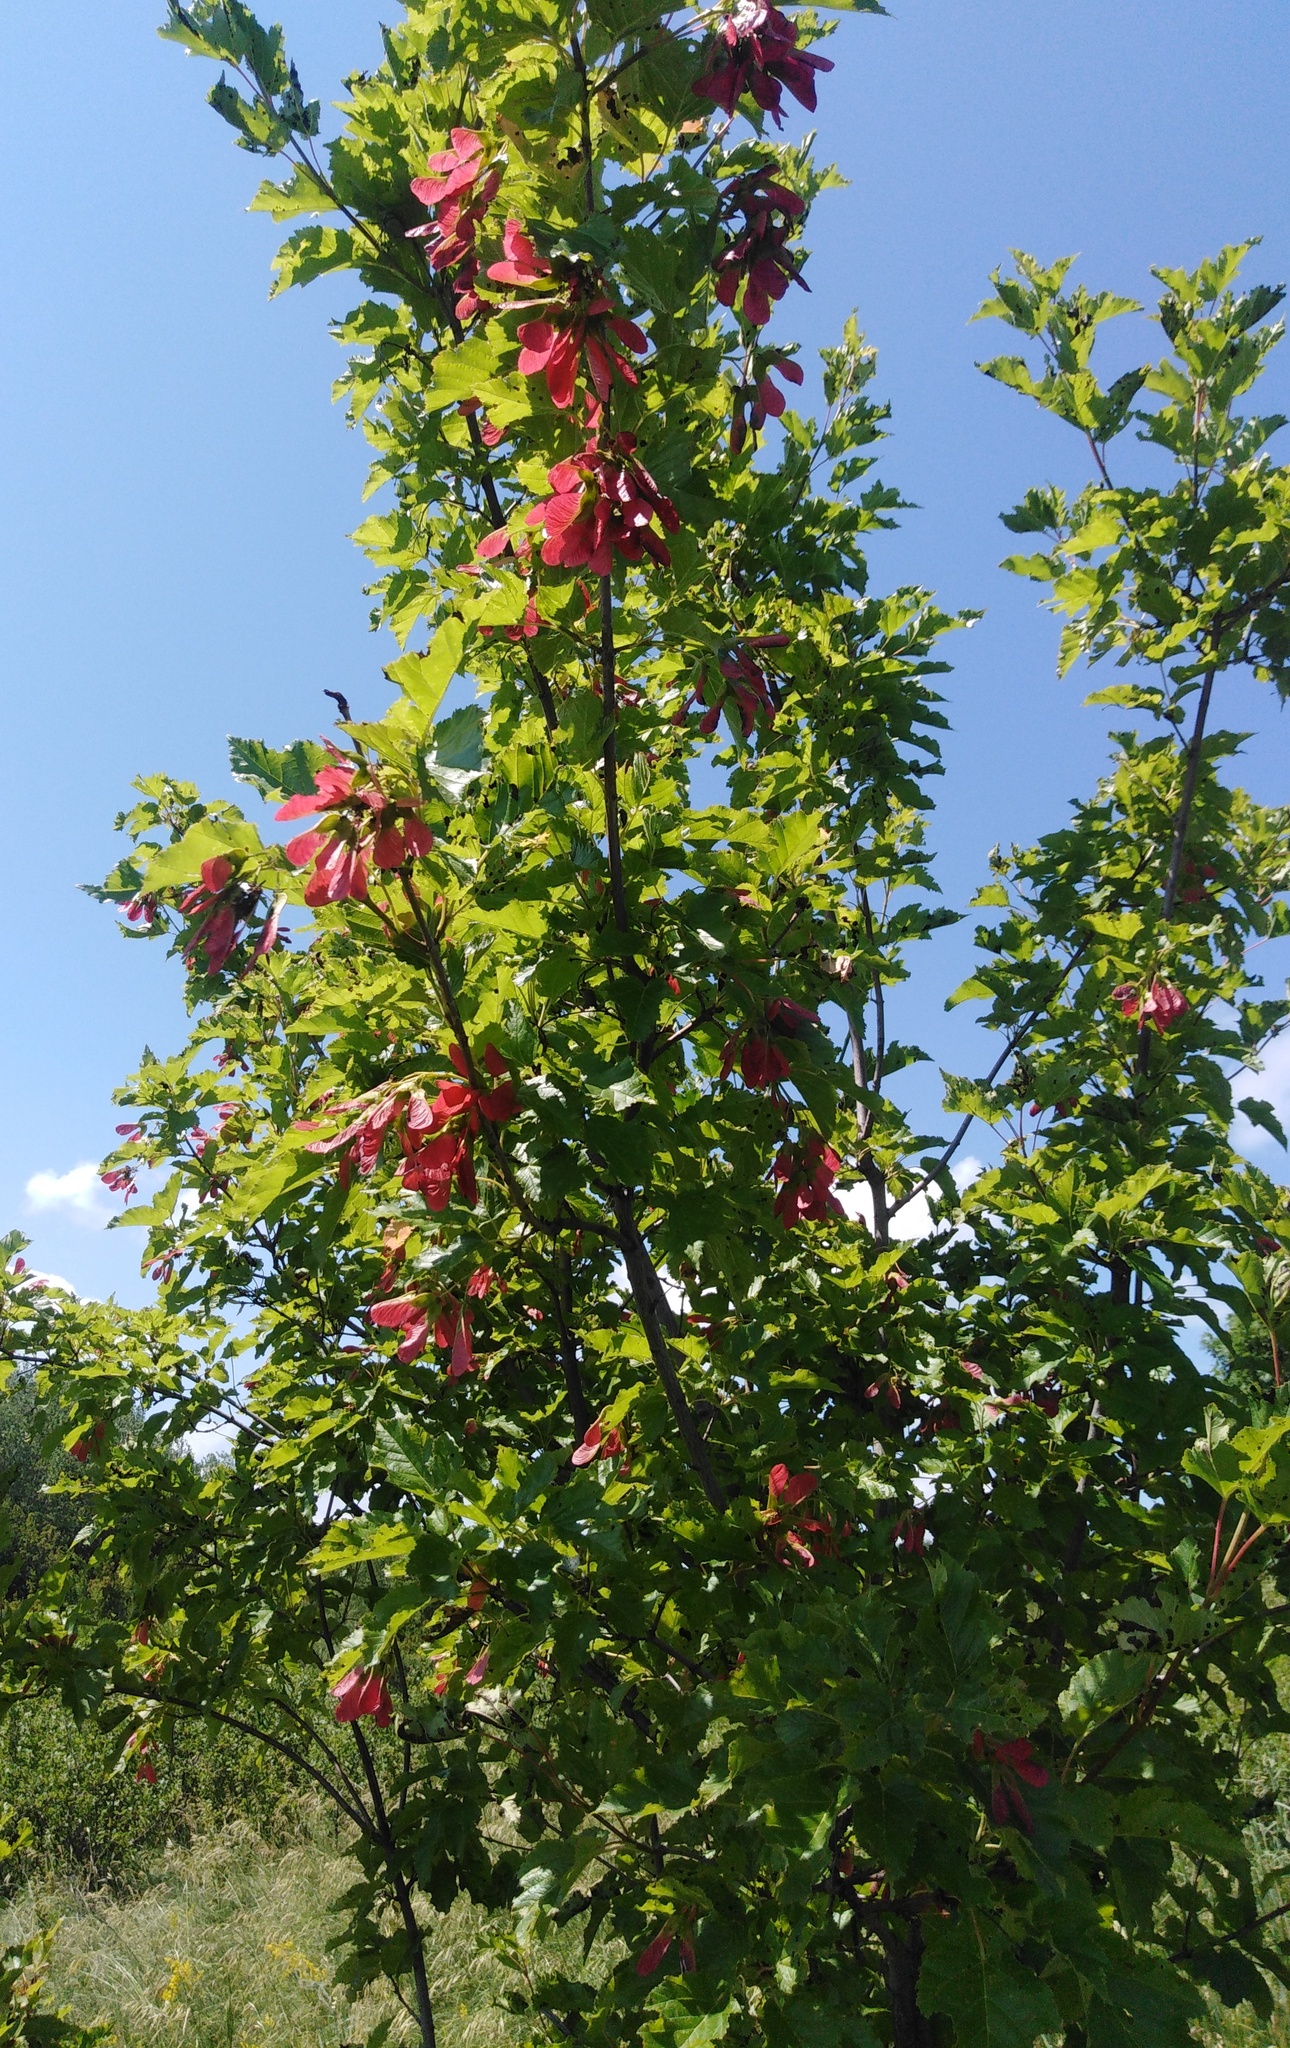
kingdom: Plantae
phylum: Tracheophyta
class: Magnoliopsida
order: Sapindales
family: Sapindaceae
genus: Acer
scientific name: Acer tataricum
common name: Tartar maple
